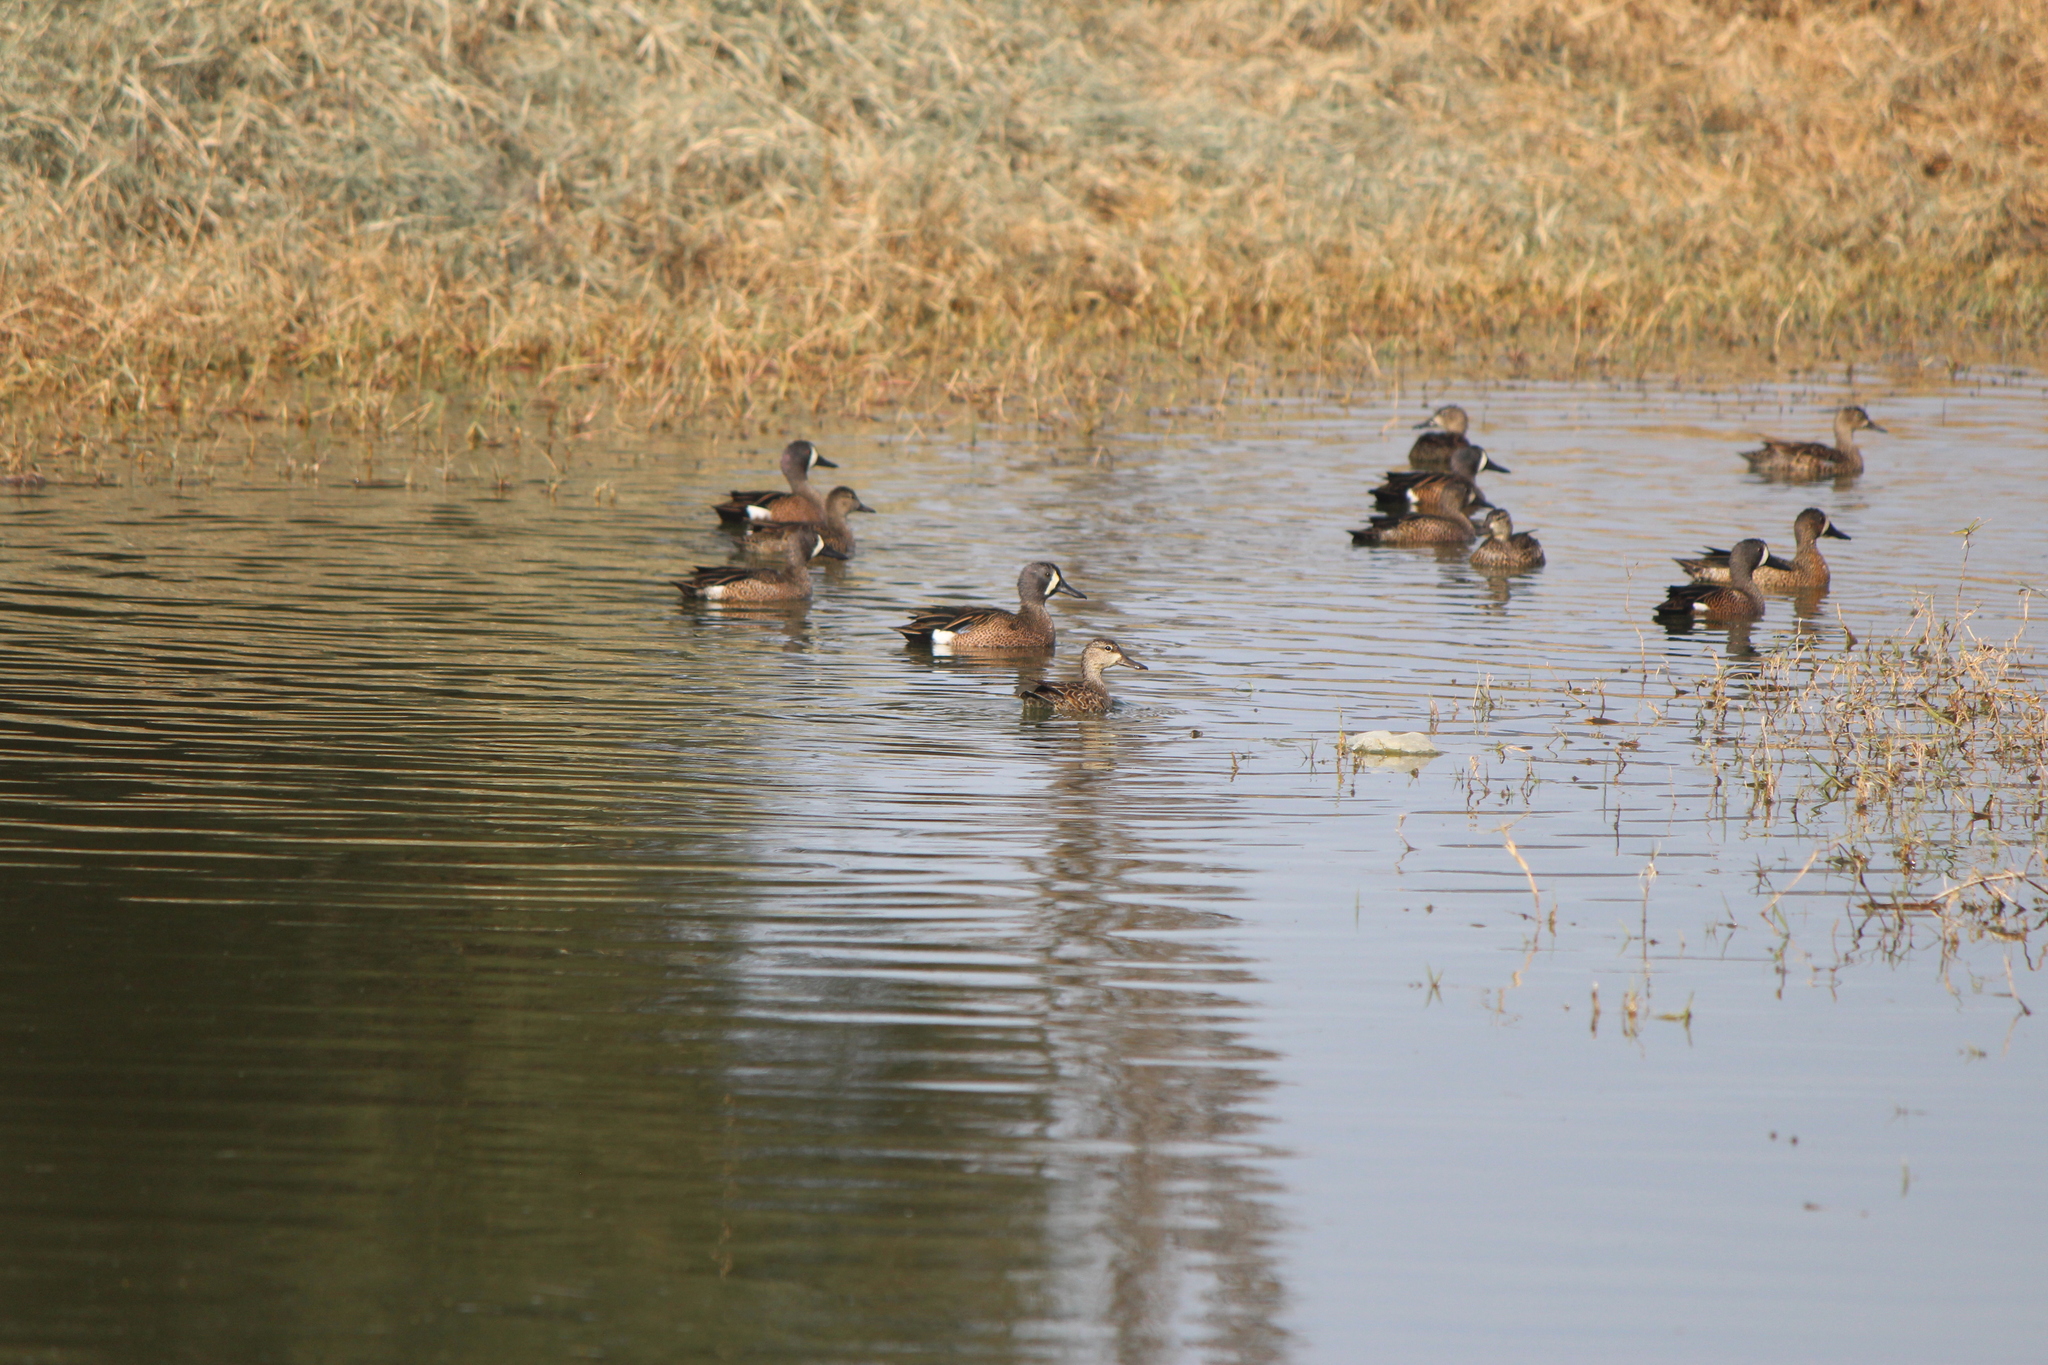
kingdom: Animalia
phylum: Chordata
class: Aves
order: Anseriformes
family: Anatidae
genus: Spatula
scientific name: Spatula discors
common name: Blue-winged teal
